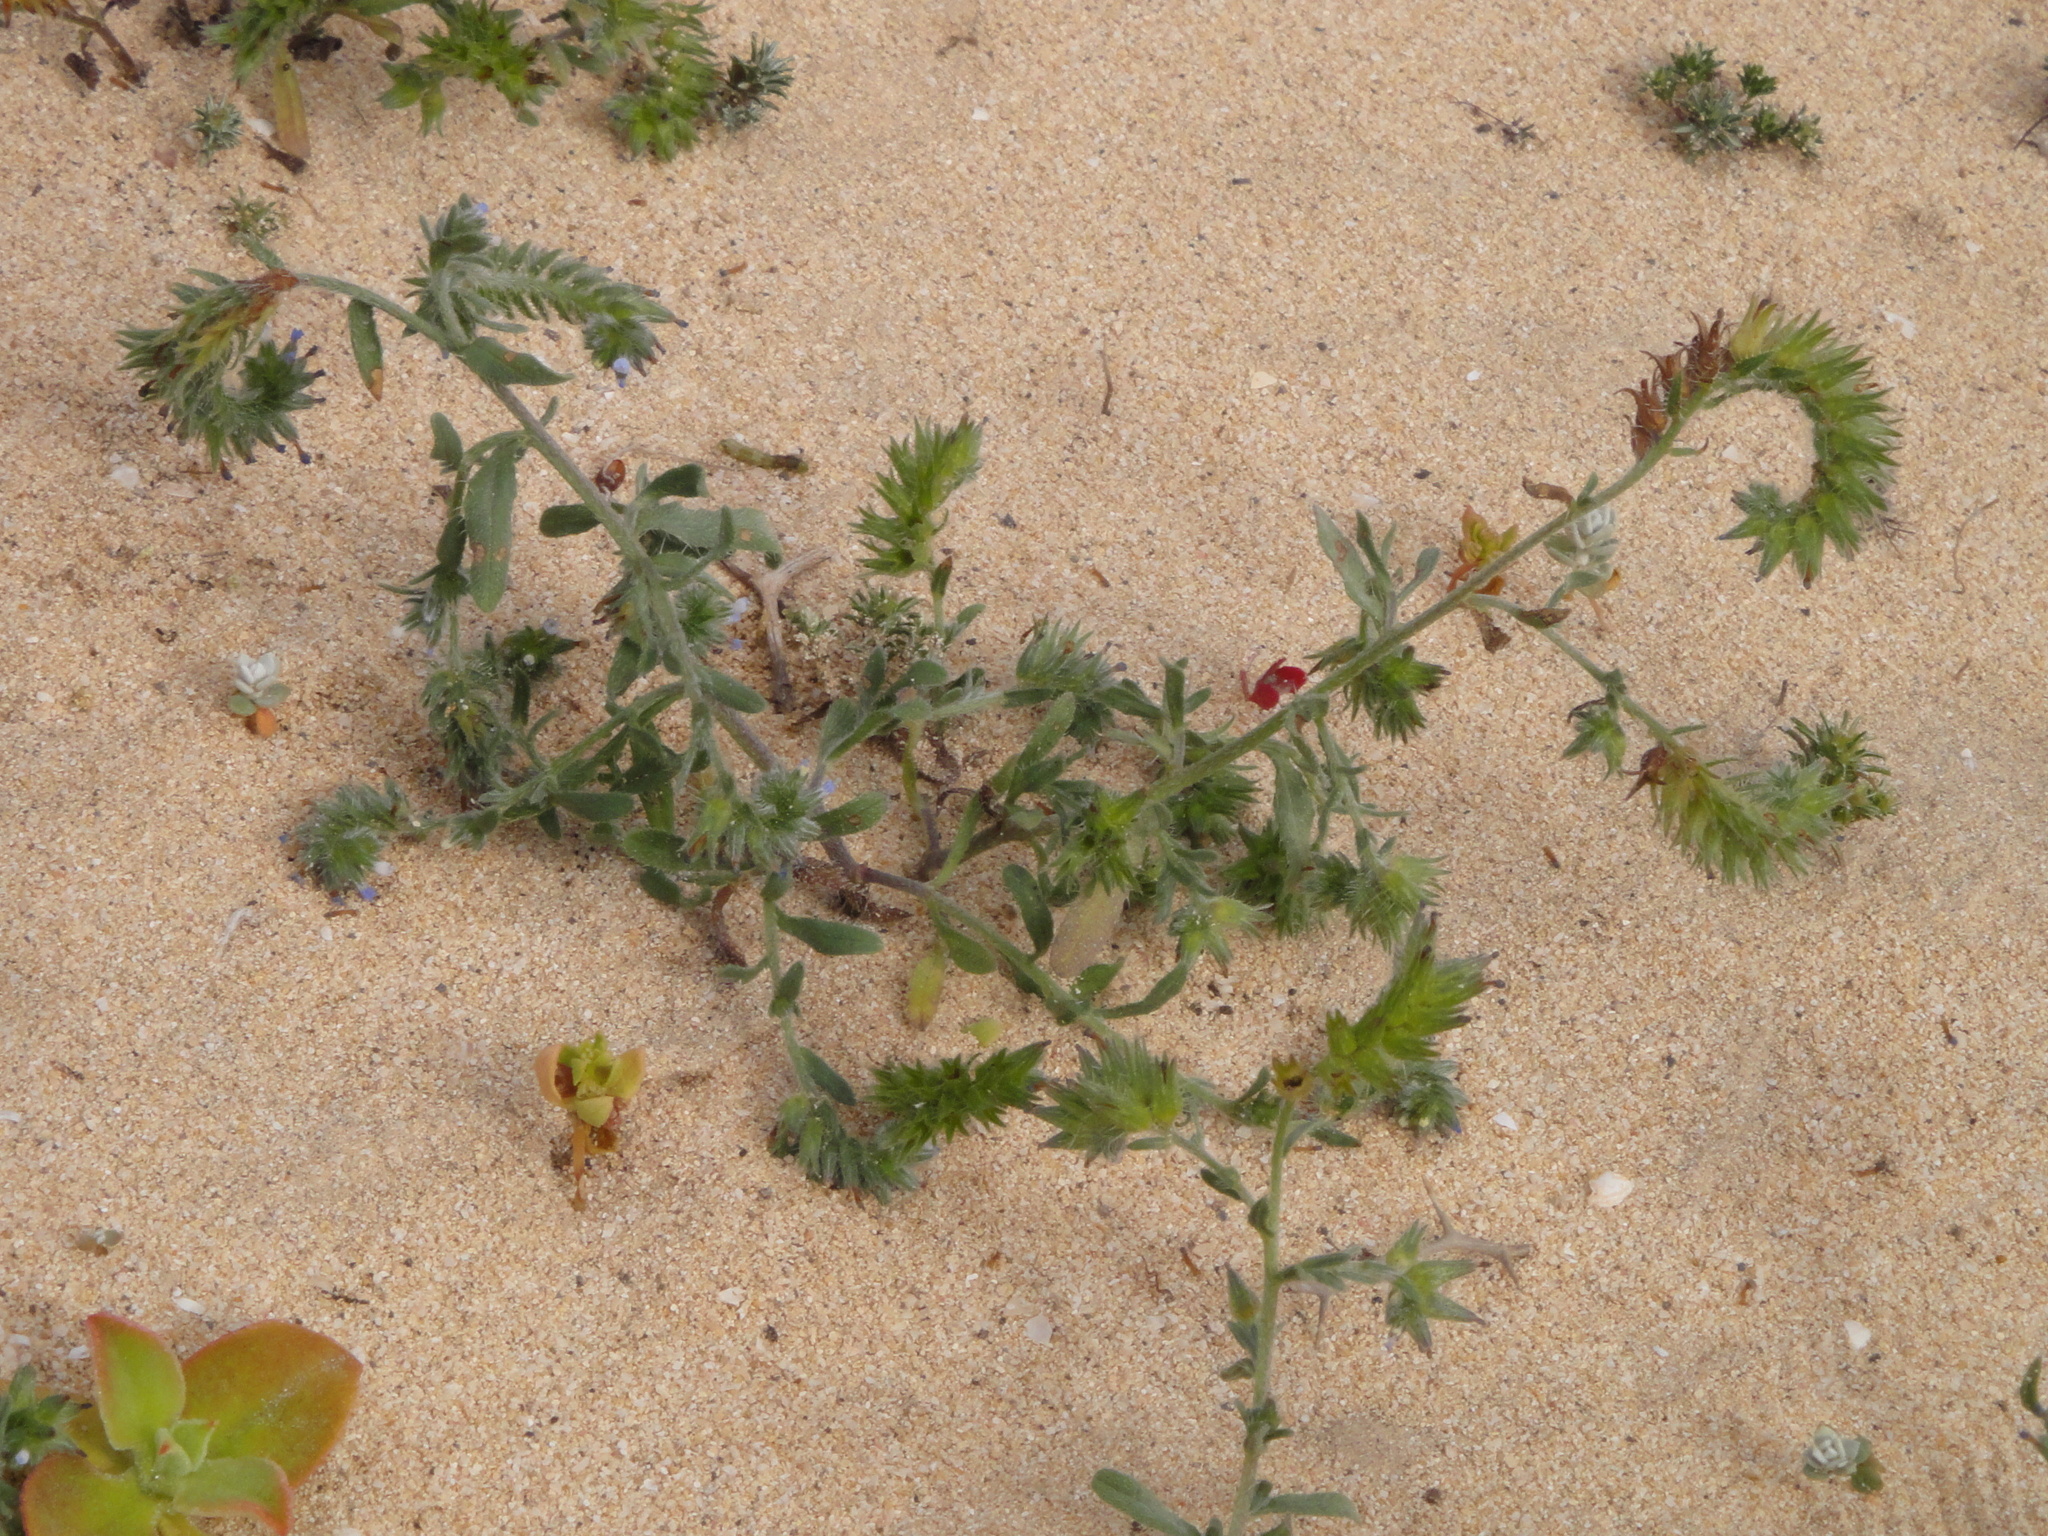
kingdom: Plantae
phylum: Tracheophyta
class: Magnoliopsida
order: Boraginales
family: Boraginaceae
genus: Mairetis
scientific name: Mairetis microsperma
